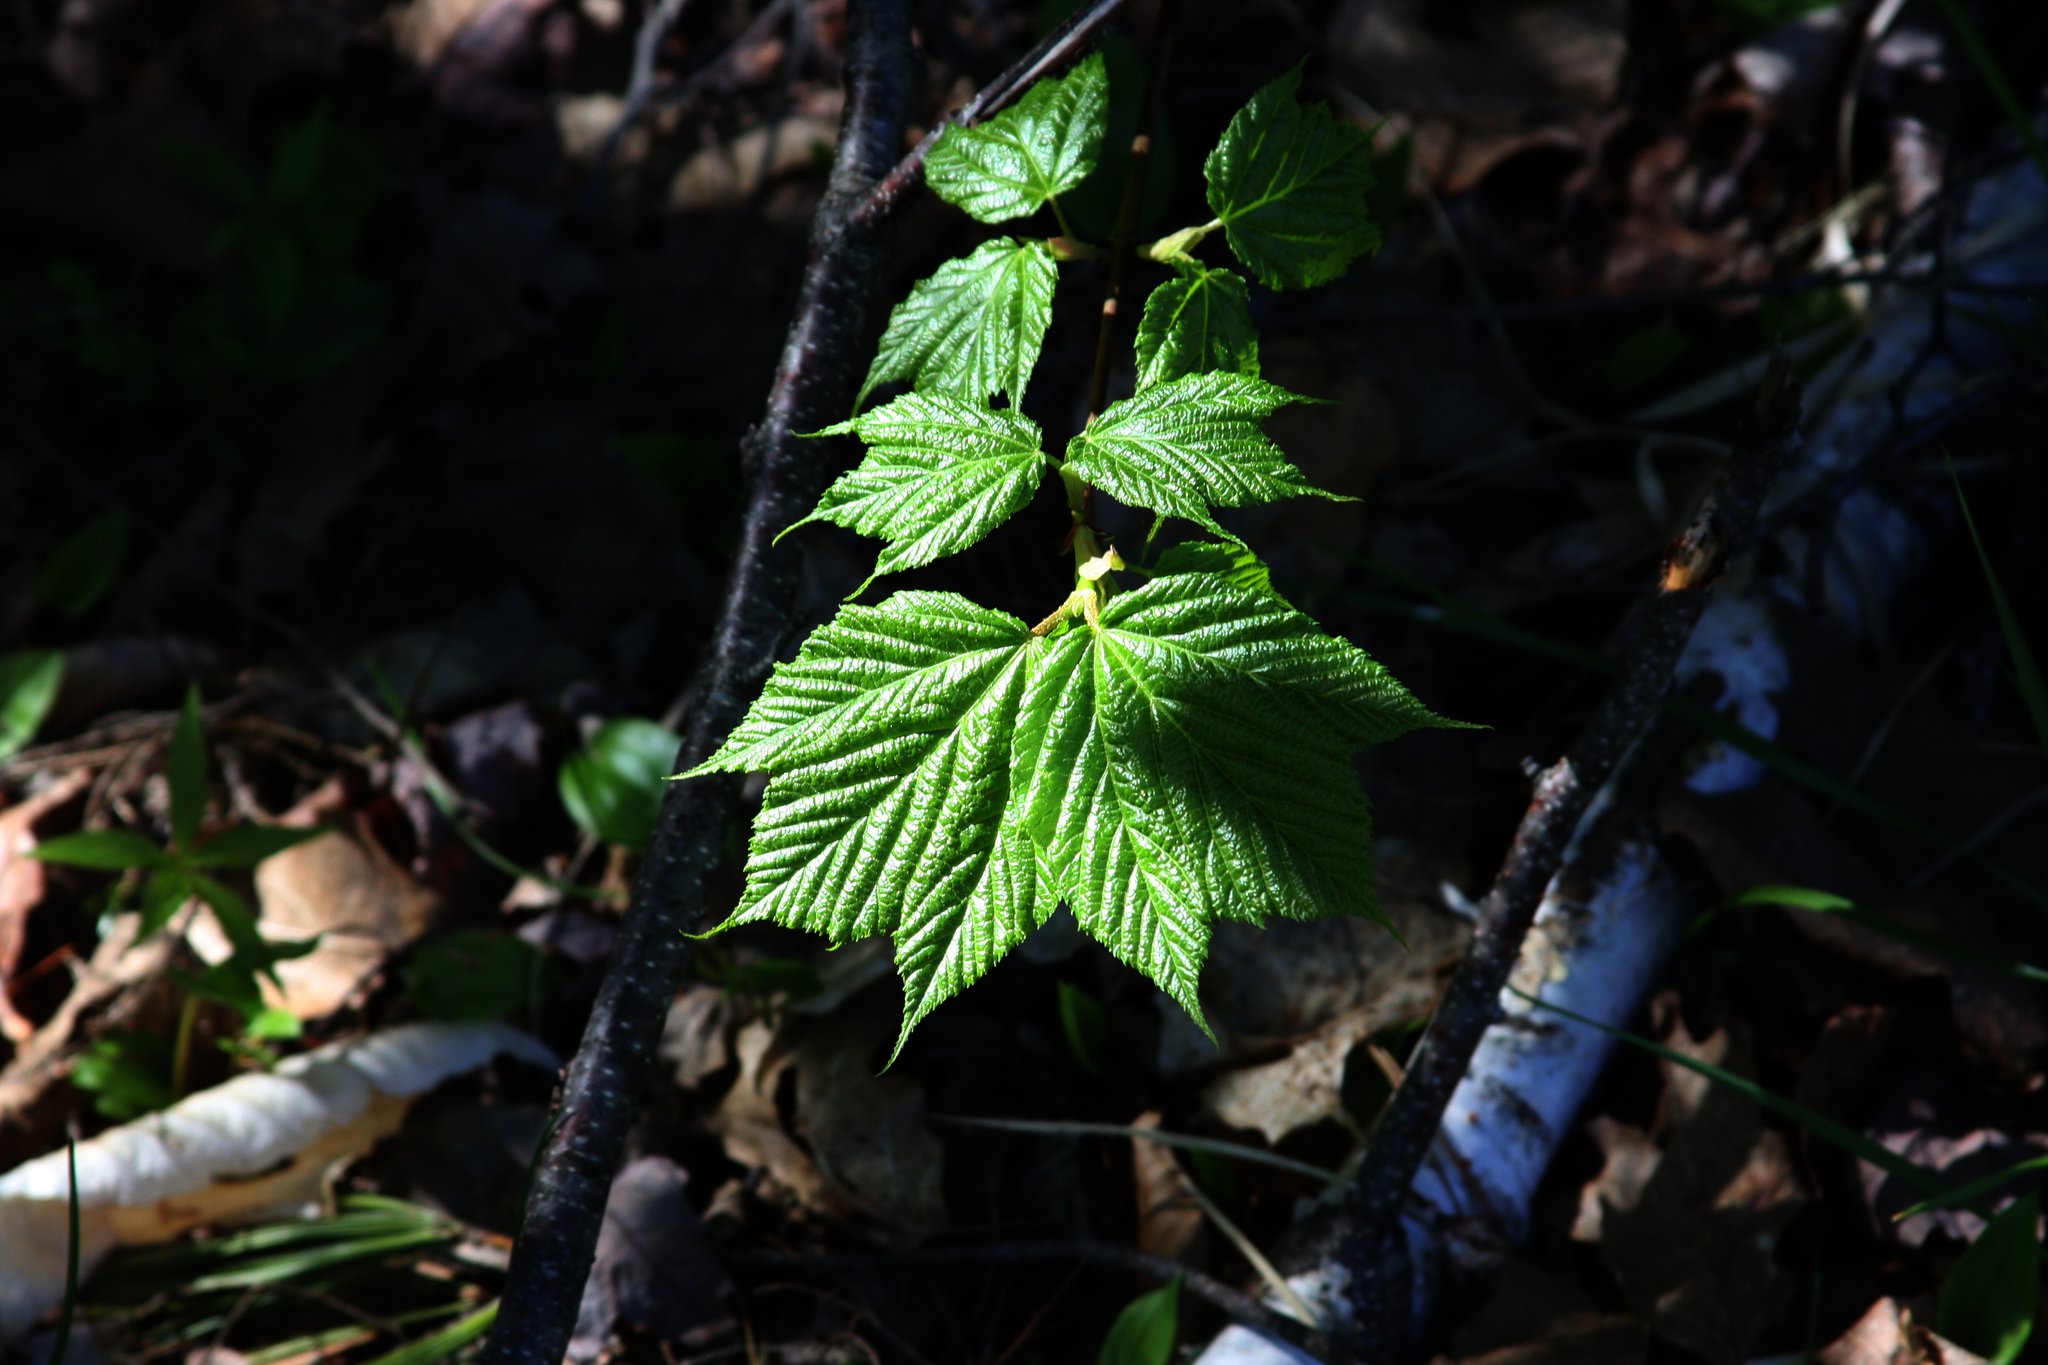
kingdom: Plantae
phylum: Tracheophyta
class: Magnoliopsida
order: Sapindales
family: Sapindaceae
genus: Acer
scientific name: Acer pensylvanicum
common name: Moosewood
